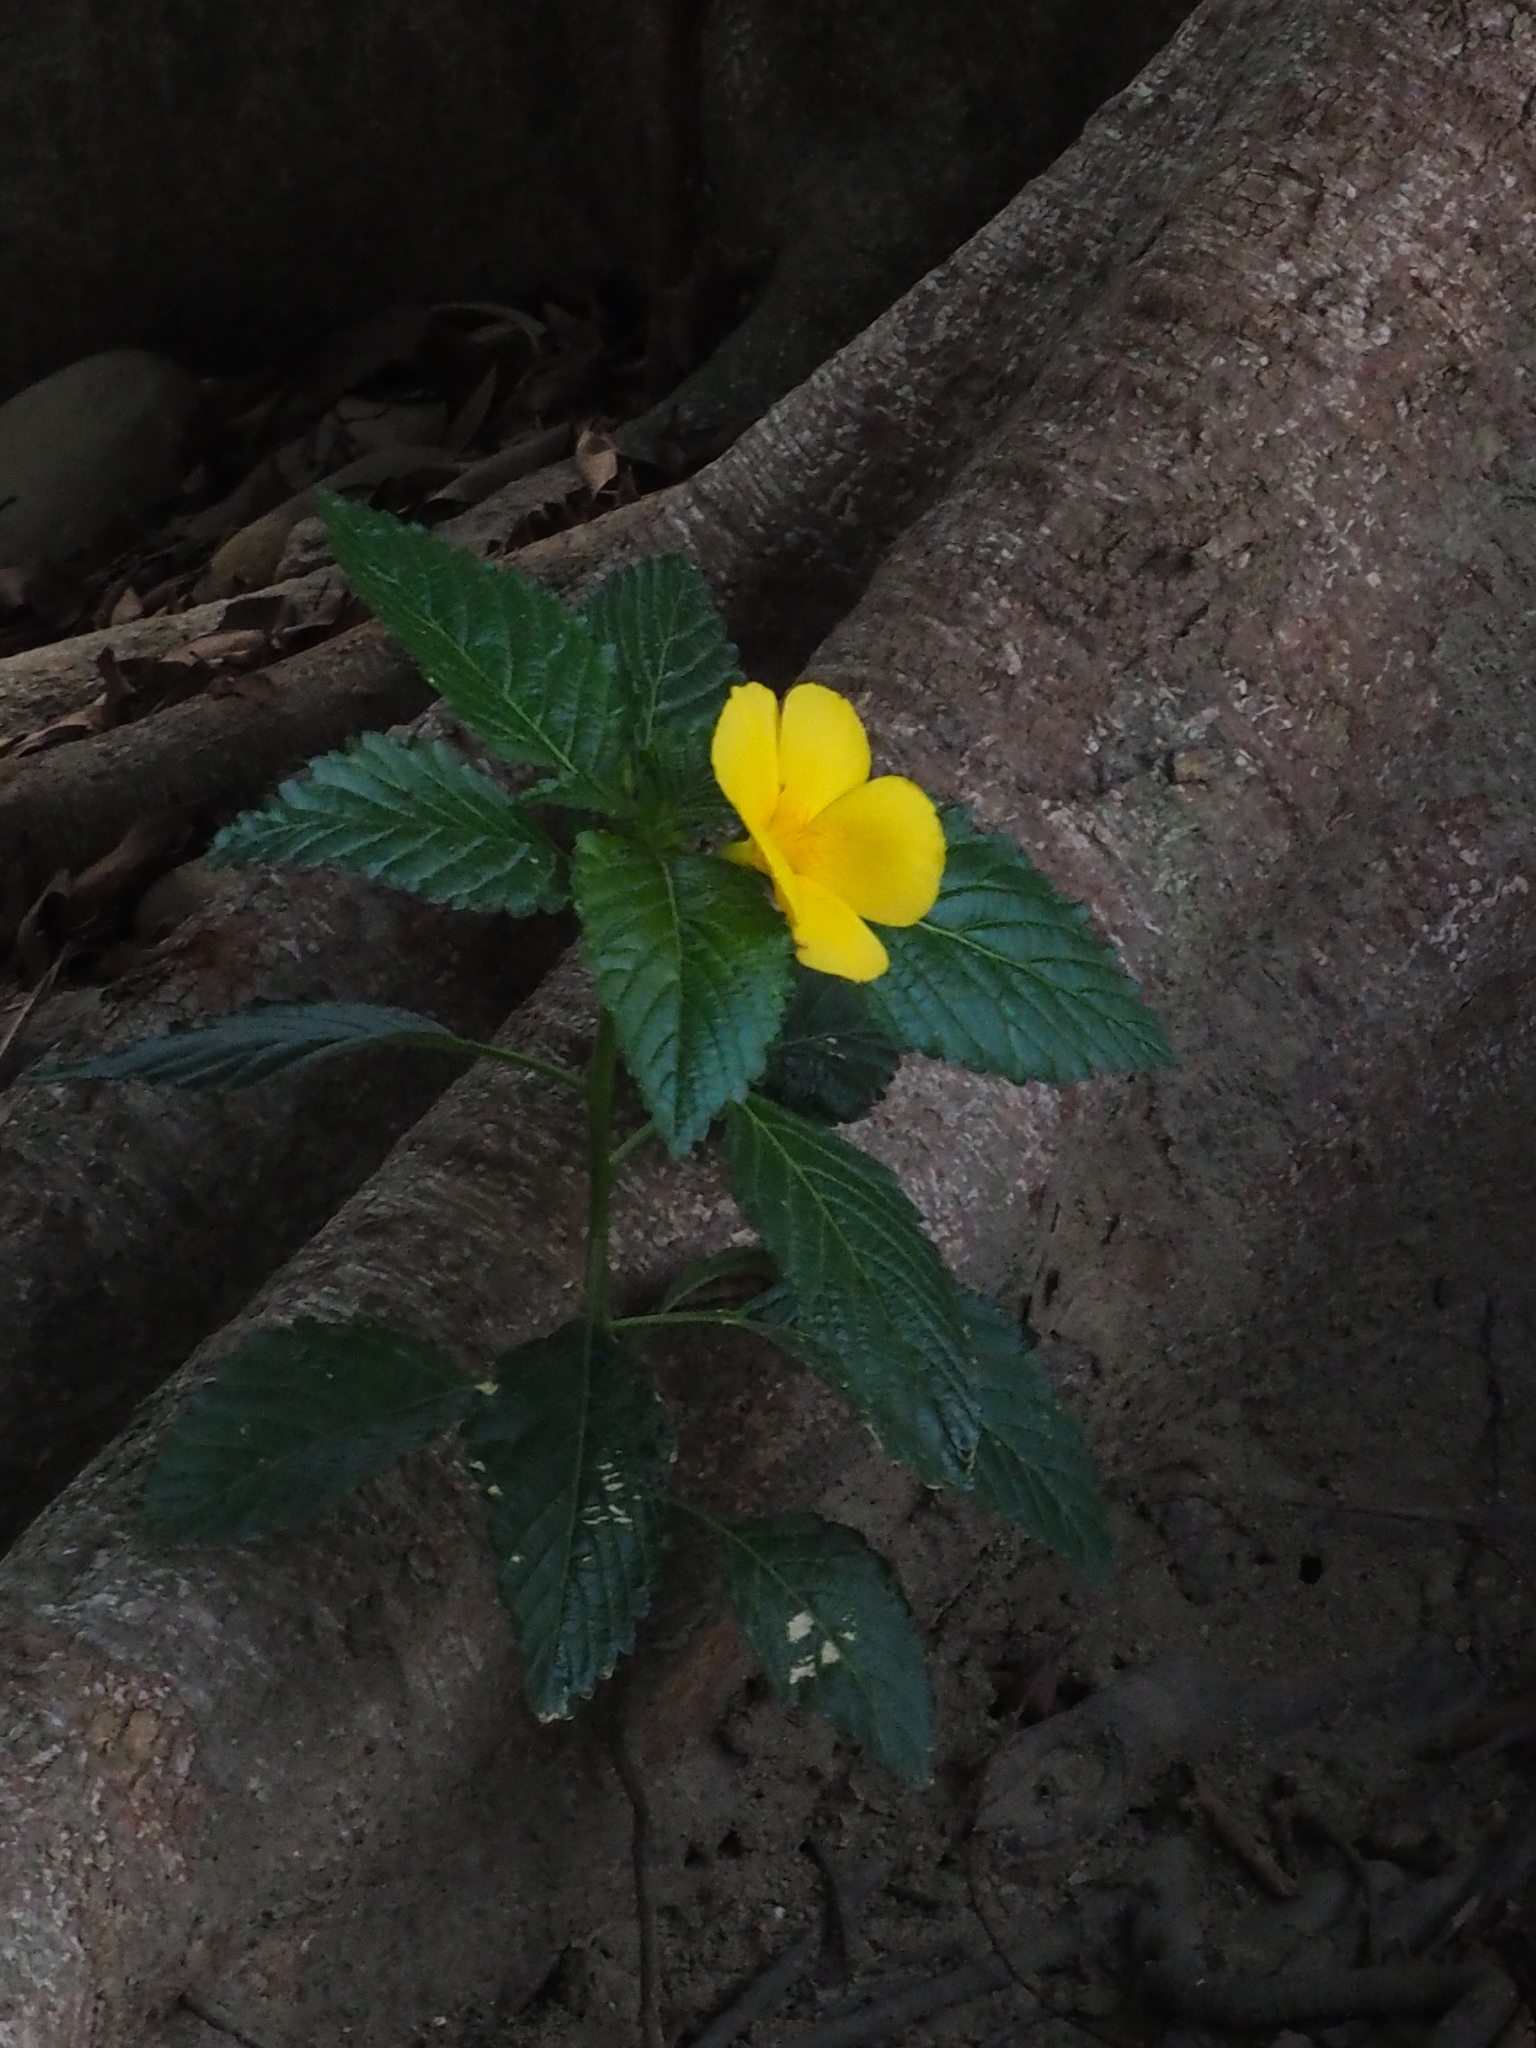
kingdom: Plantae
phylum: Tracheophyta
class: Magnoliopsida
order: Malpighiales
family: Turneraceae
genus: Turnera
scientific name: Turnera ulmifolia
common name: Ramgoat dashalong
